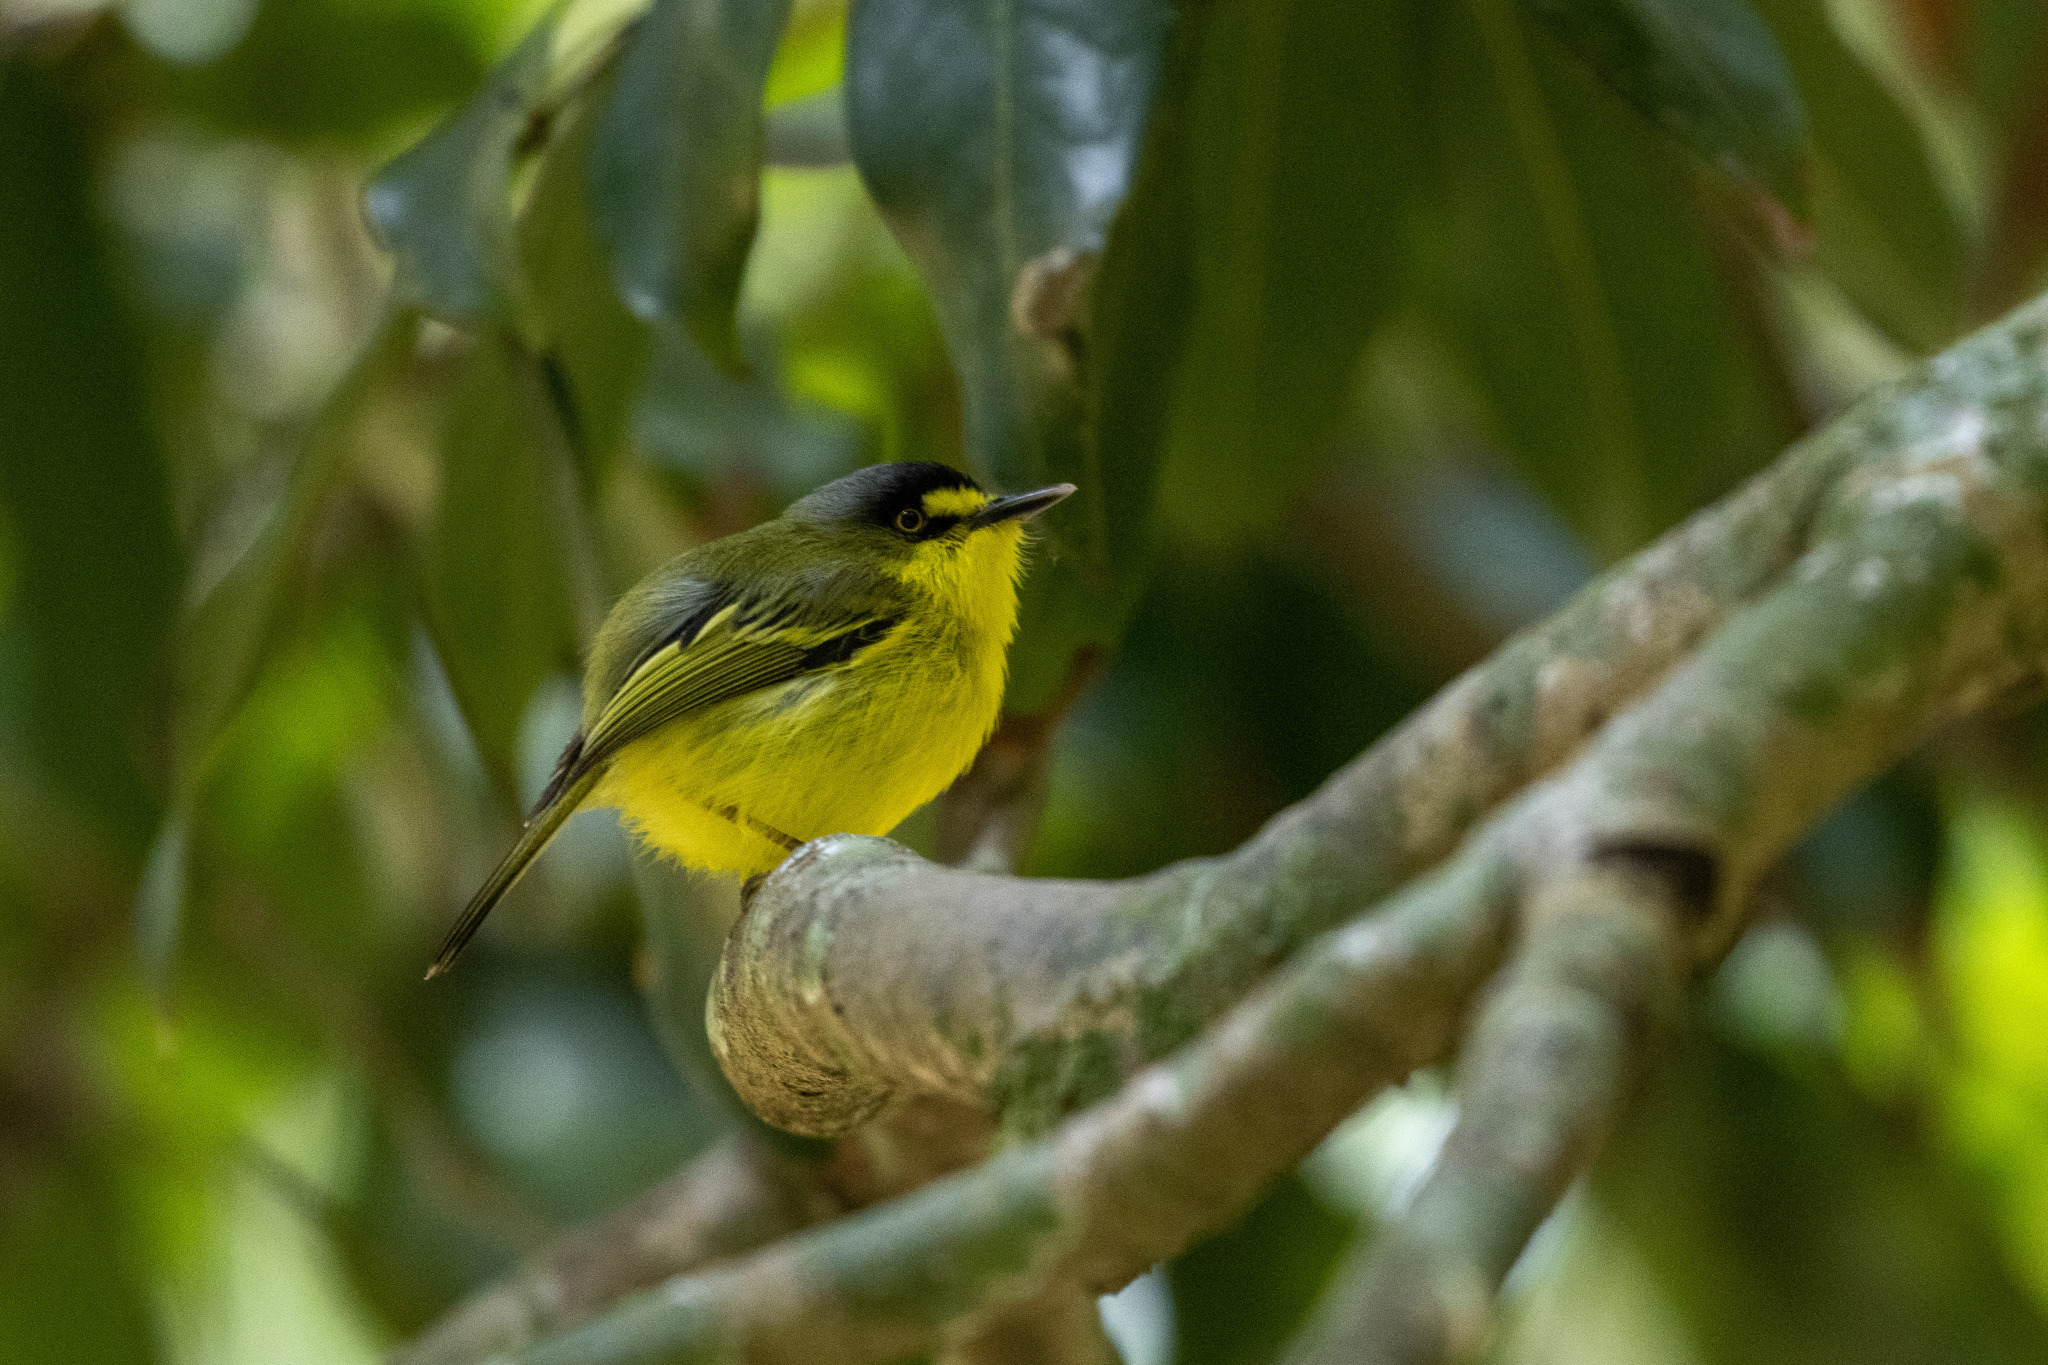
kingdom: Animalia
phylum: Chordata
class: Aves
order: Passeriformes
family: Tyrannidae
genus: Todirostrum
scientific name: Todirostrum poliocephalum
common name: Yellow-lored tody-flycatcher
